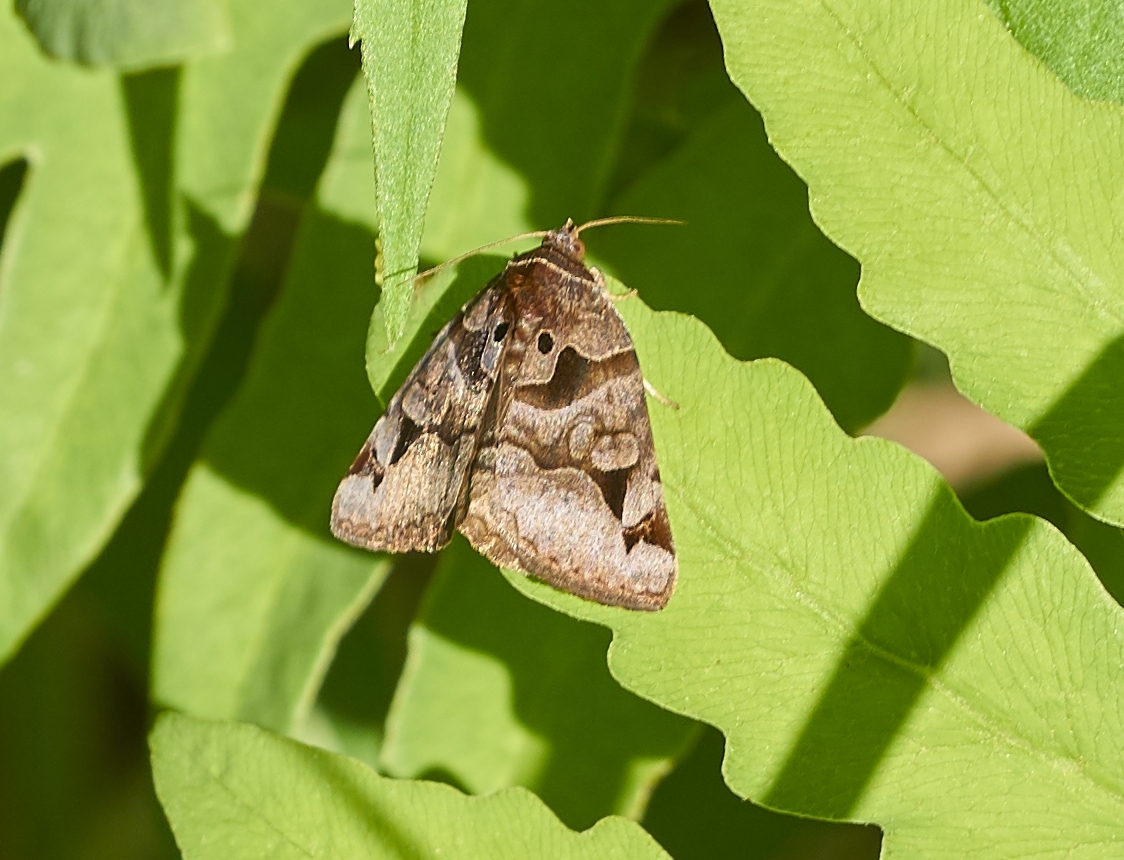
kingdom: Animalia
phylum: Arthropoda
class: Insecta
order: Lepidoptera
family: Erebidae
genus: Euclidia
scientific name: Euclidia cuspidea
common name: Toothed somberwing
